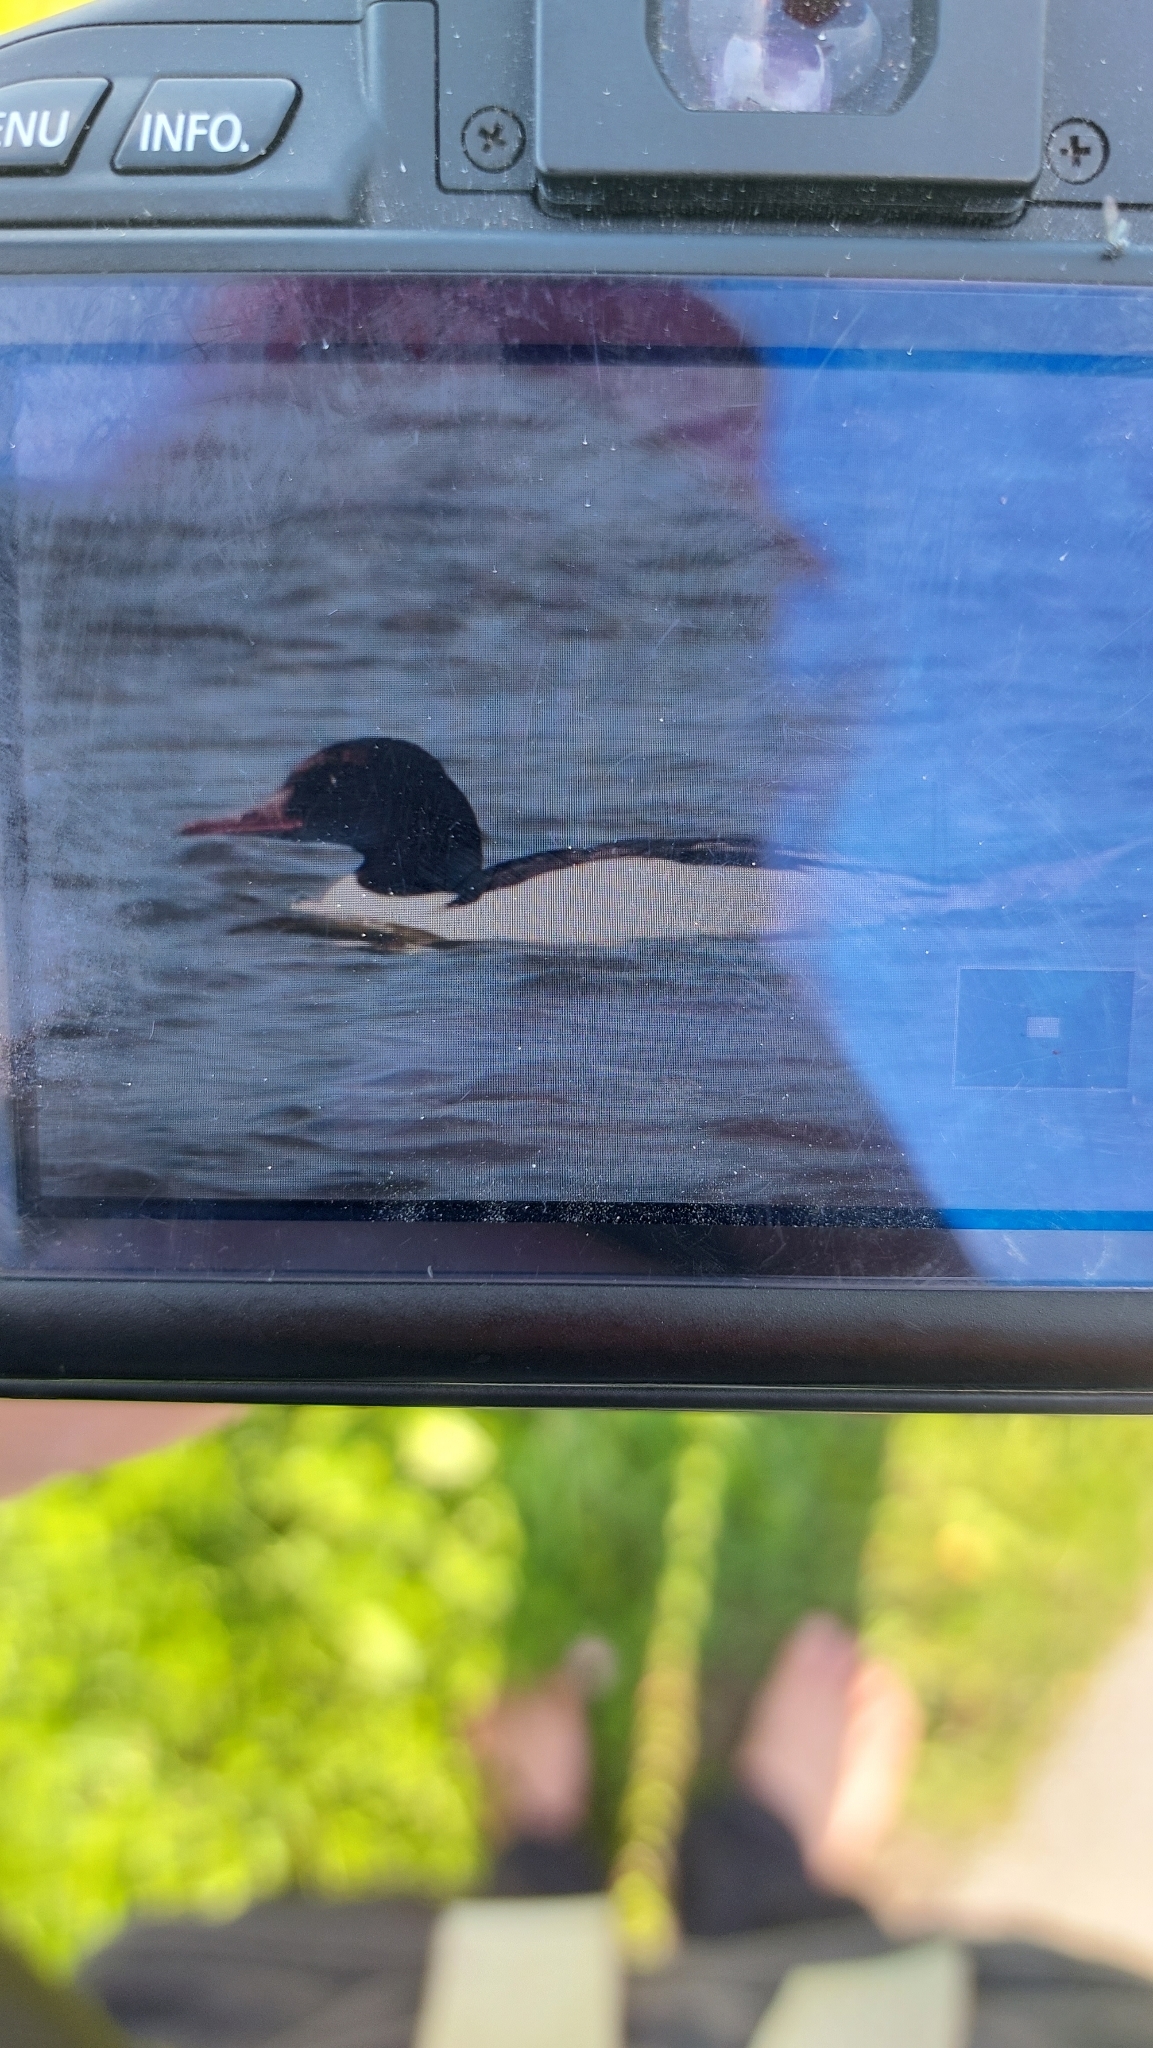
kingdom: Animalia
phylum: Chordata
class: Aves
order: Anseriformes
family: Anatidae
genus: Mergus
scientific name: Mergus merganser
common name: Common merganser
